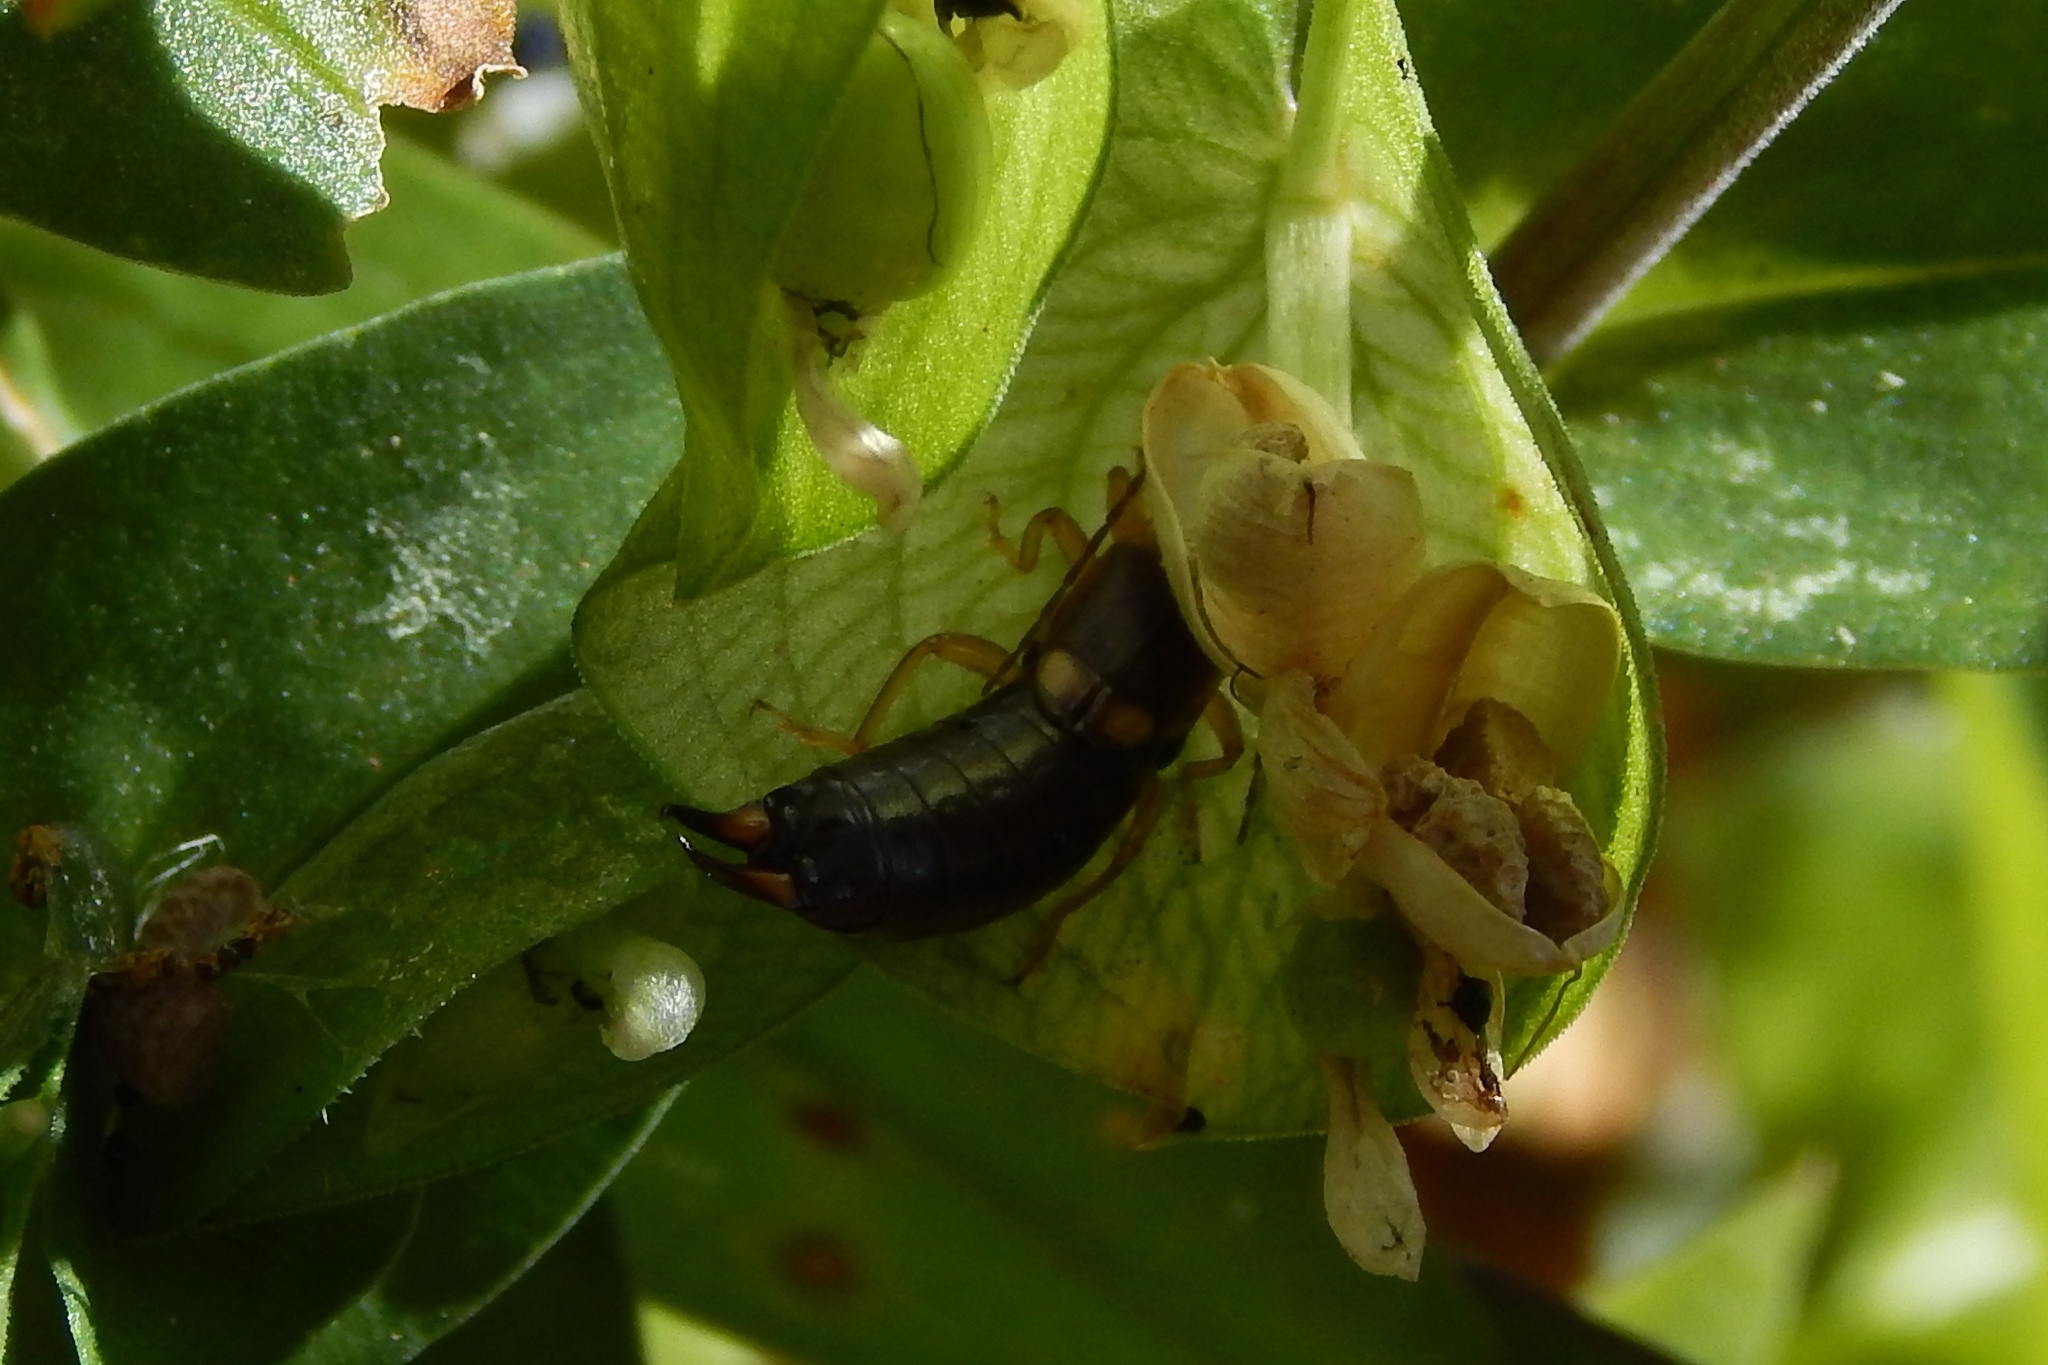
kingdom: Animalia
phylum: Arthropoda
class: Insecta
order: Dermaptera
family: Forficulidae
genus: Forficula
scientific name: Forficula
